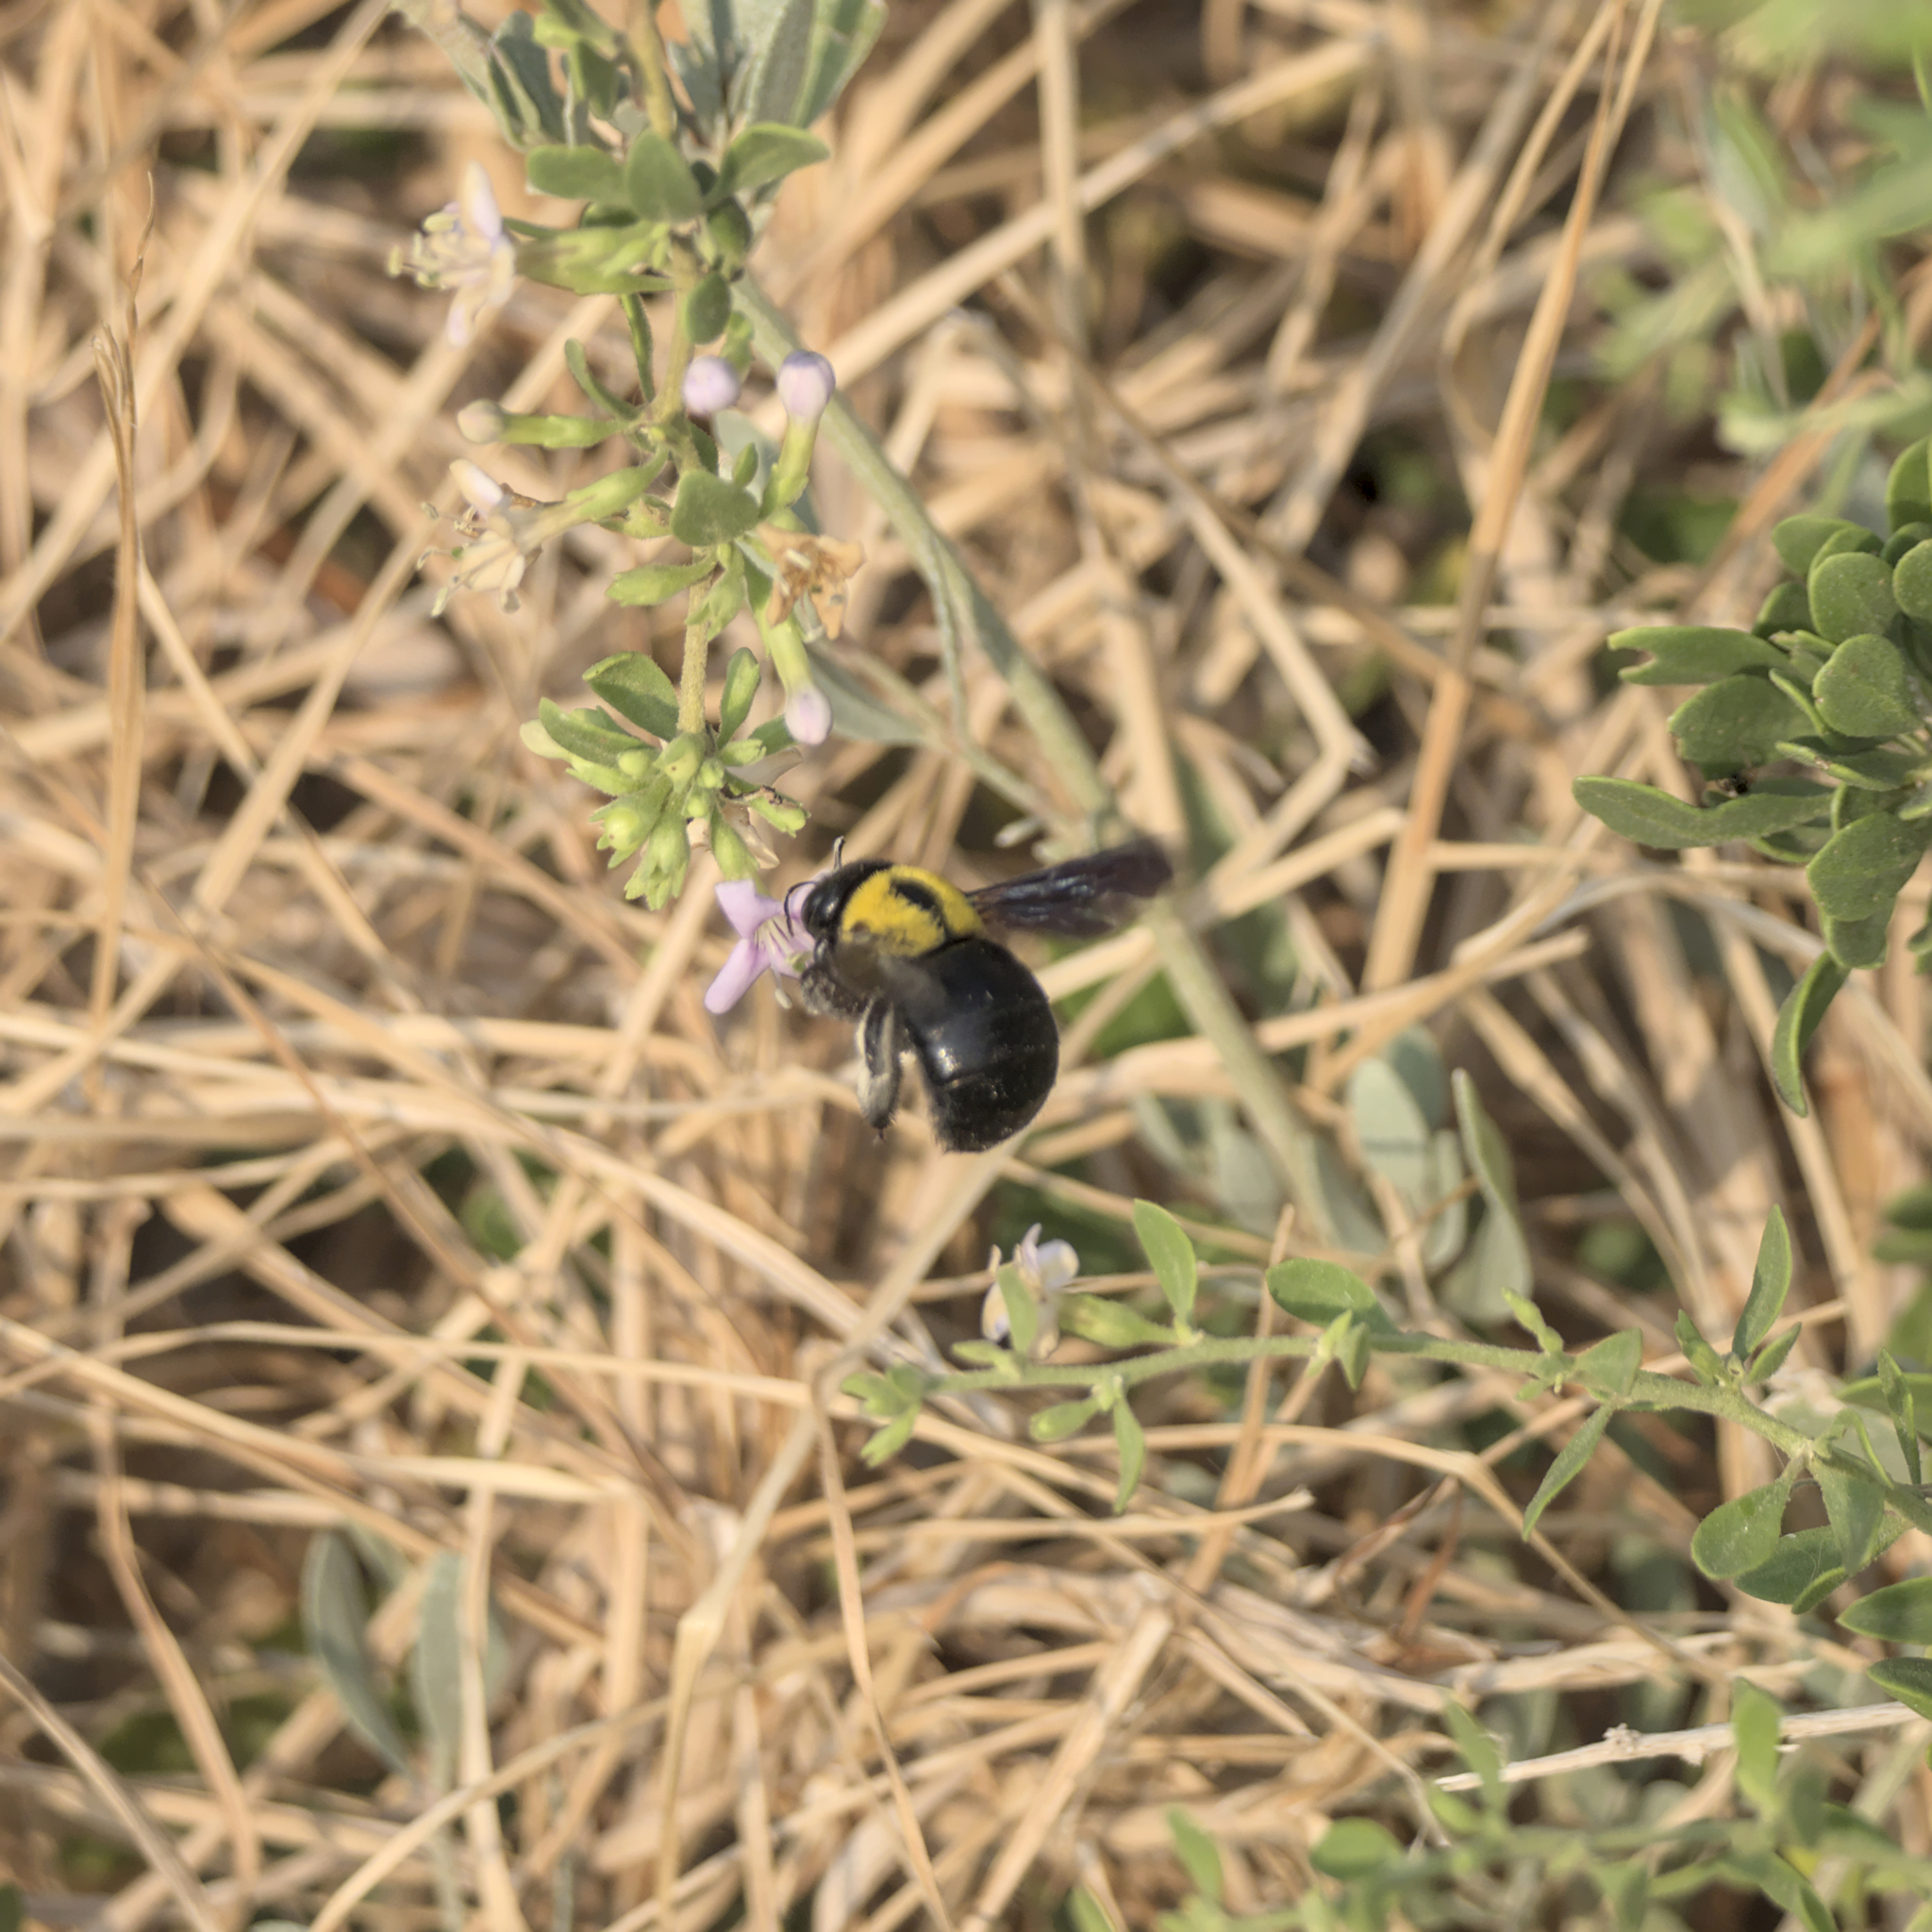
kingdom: Animalia
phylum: Arthropoda
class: Insecta
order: Hymenoptera
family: Apidae
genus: Xylocopa
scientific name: Xylocopa pubescens
